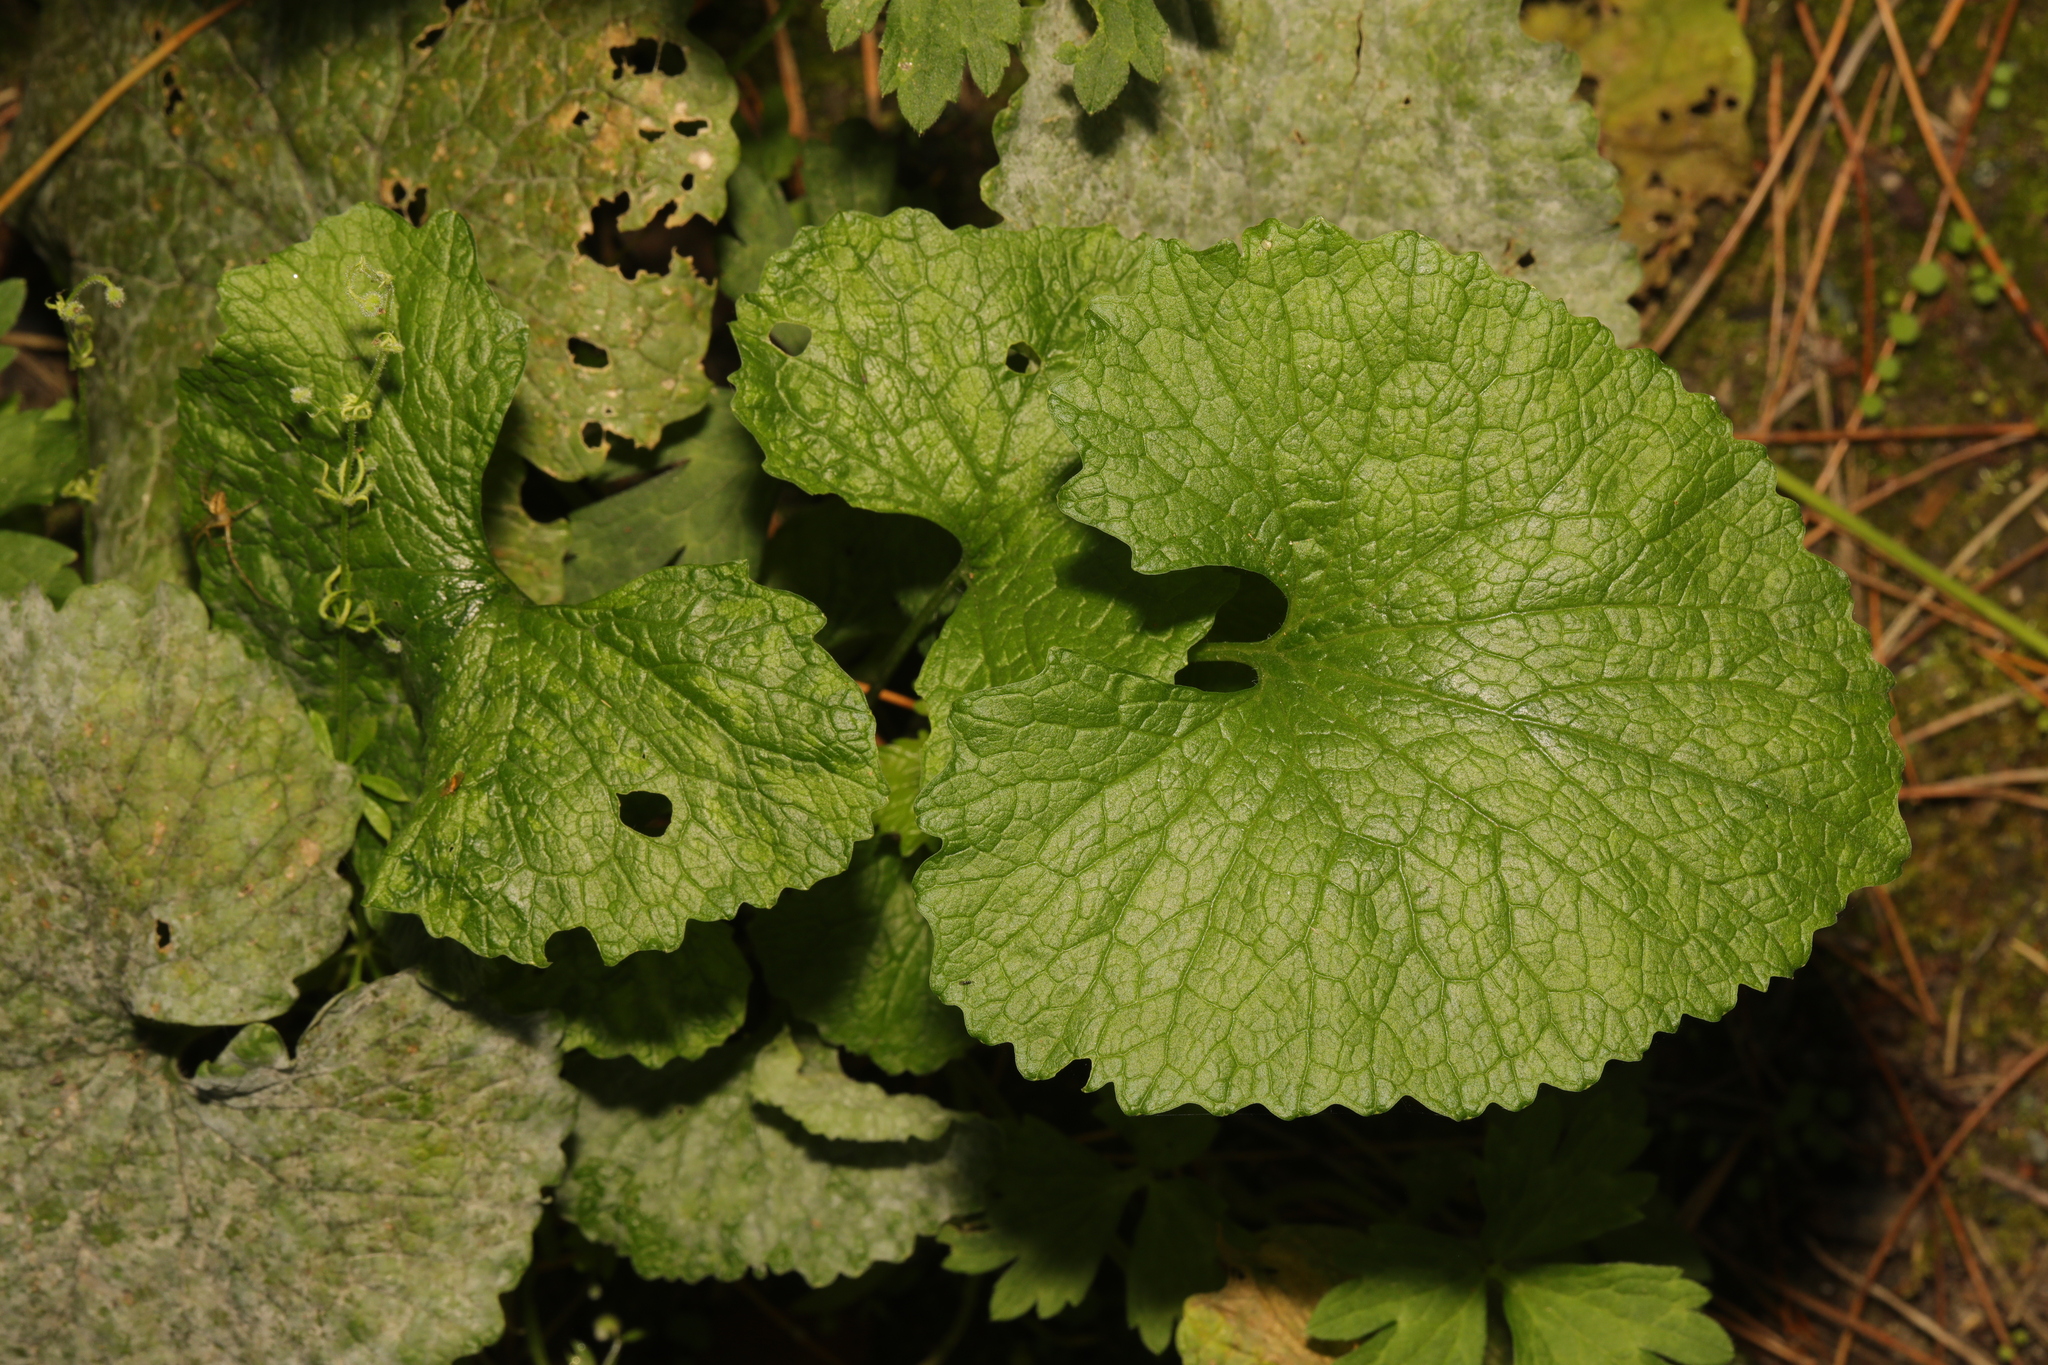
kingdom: Plantae
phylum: Tracheophyta
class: Magnoliopsida
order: Brassicales
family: Brassicaceae
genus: Alliaria
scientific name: Alliaria petiolata
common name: Garlic mustard
